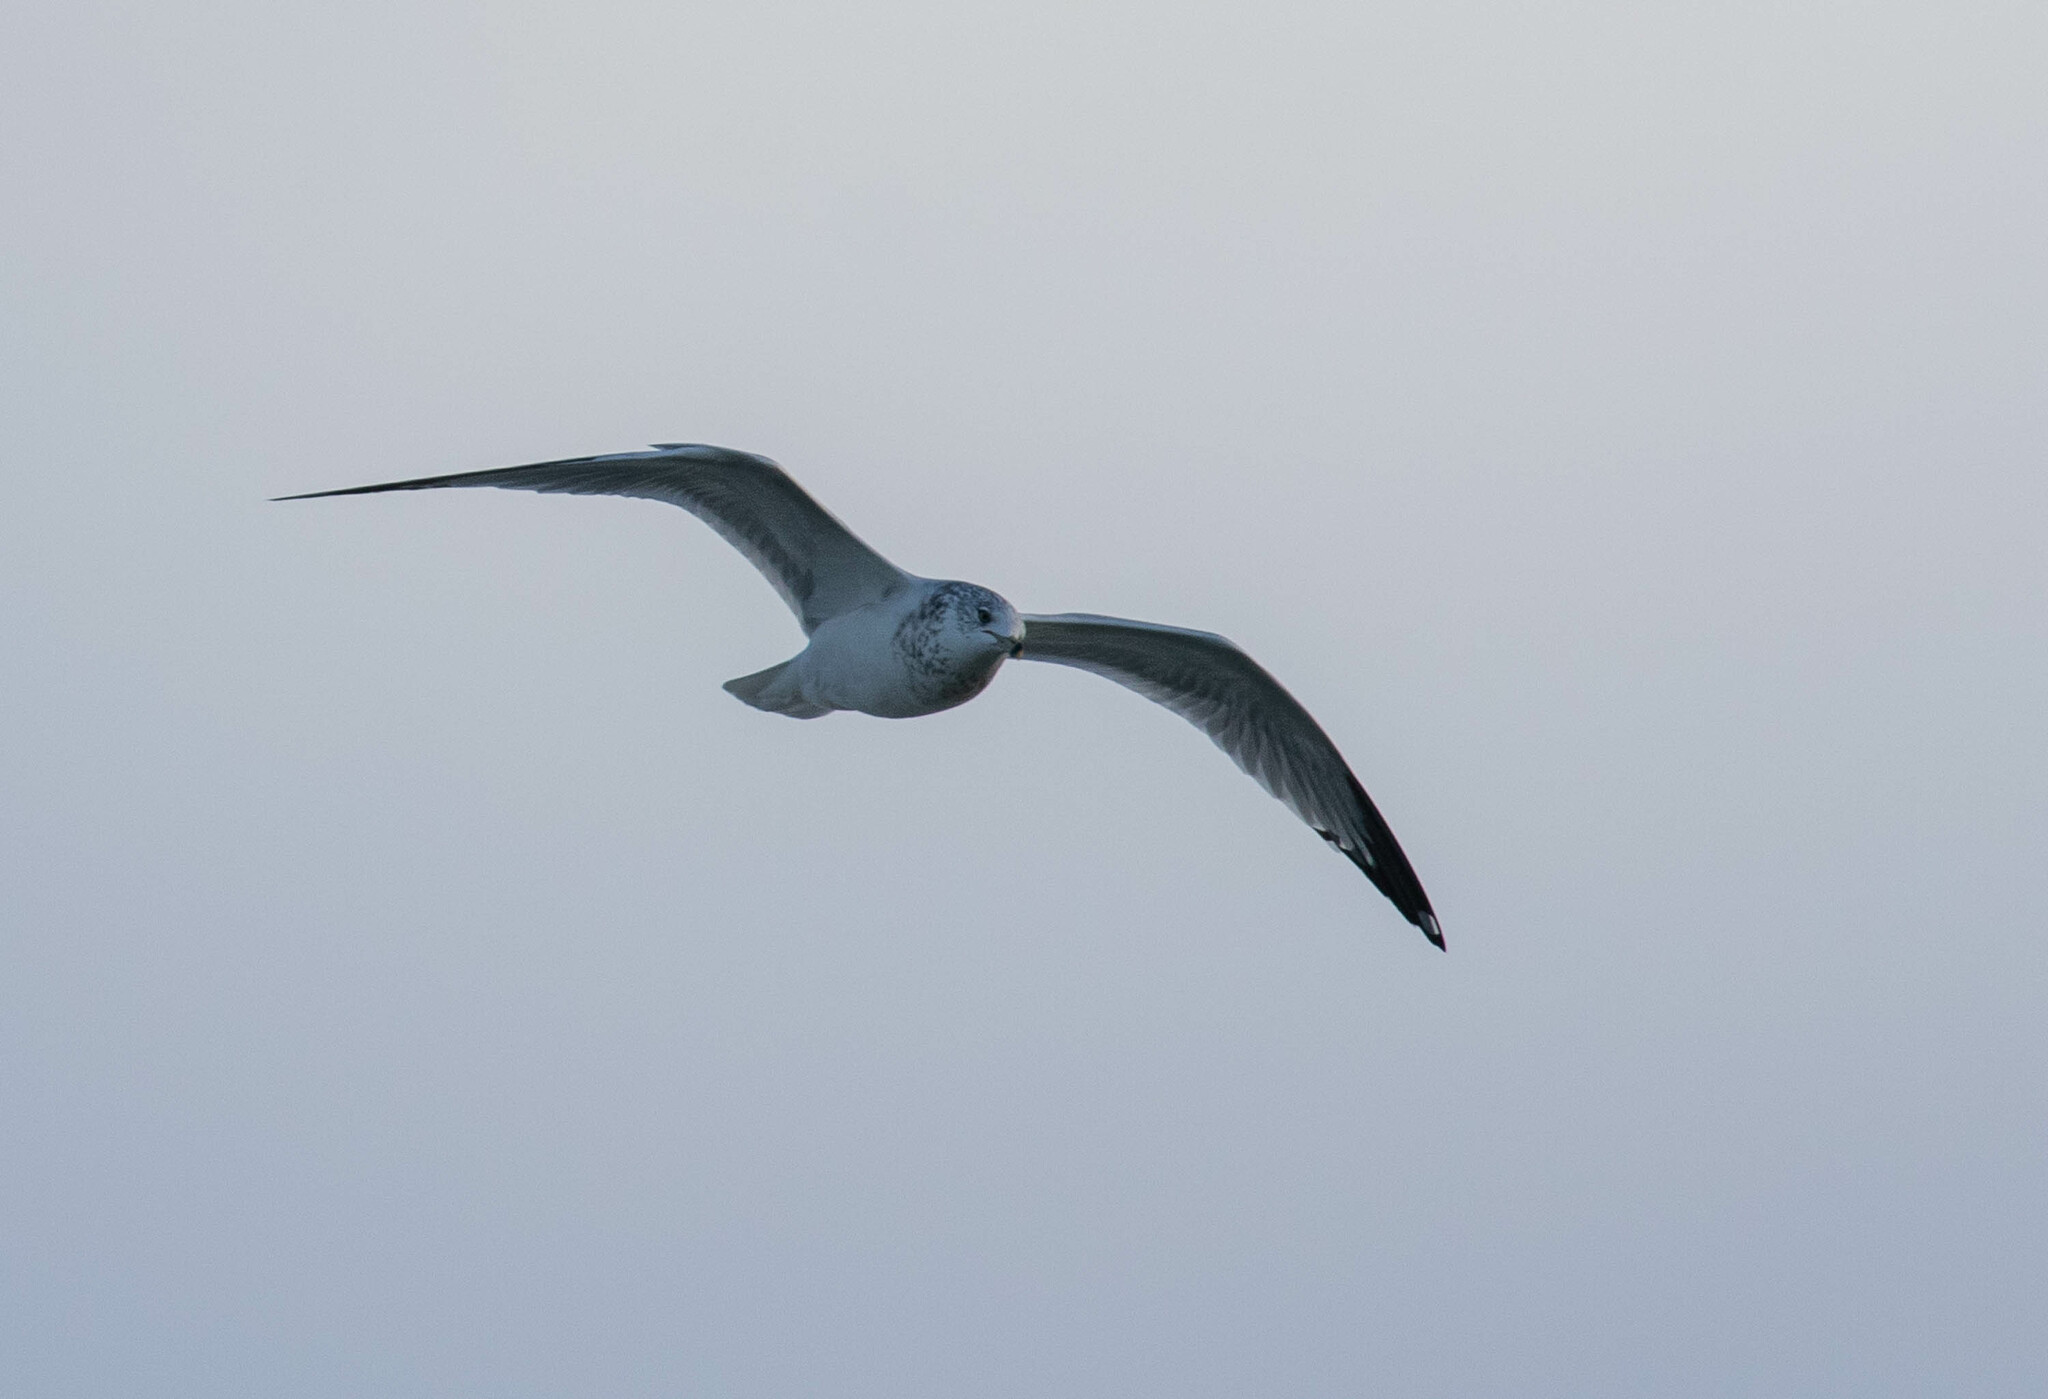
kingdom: Animalia
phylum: Chordata
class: Aves
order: Charadriiformes
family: Laridae
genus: Larus
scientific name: Larus delawarensis
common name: Ring-billed gull
